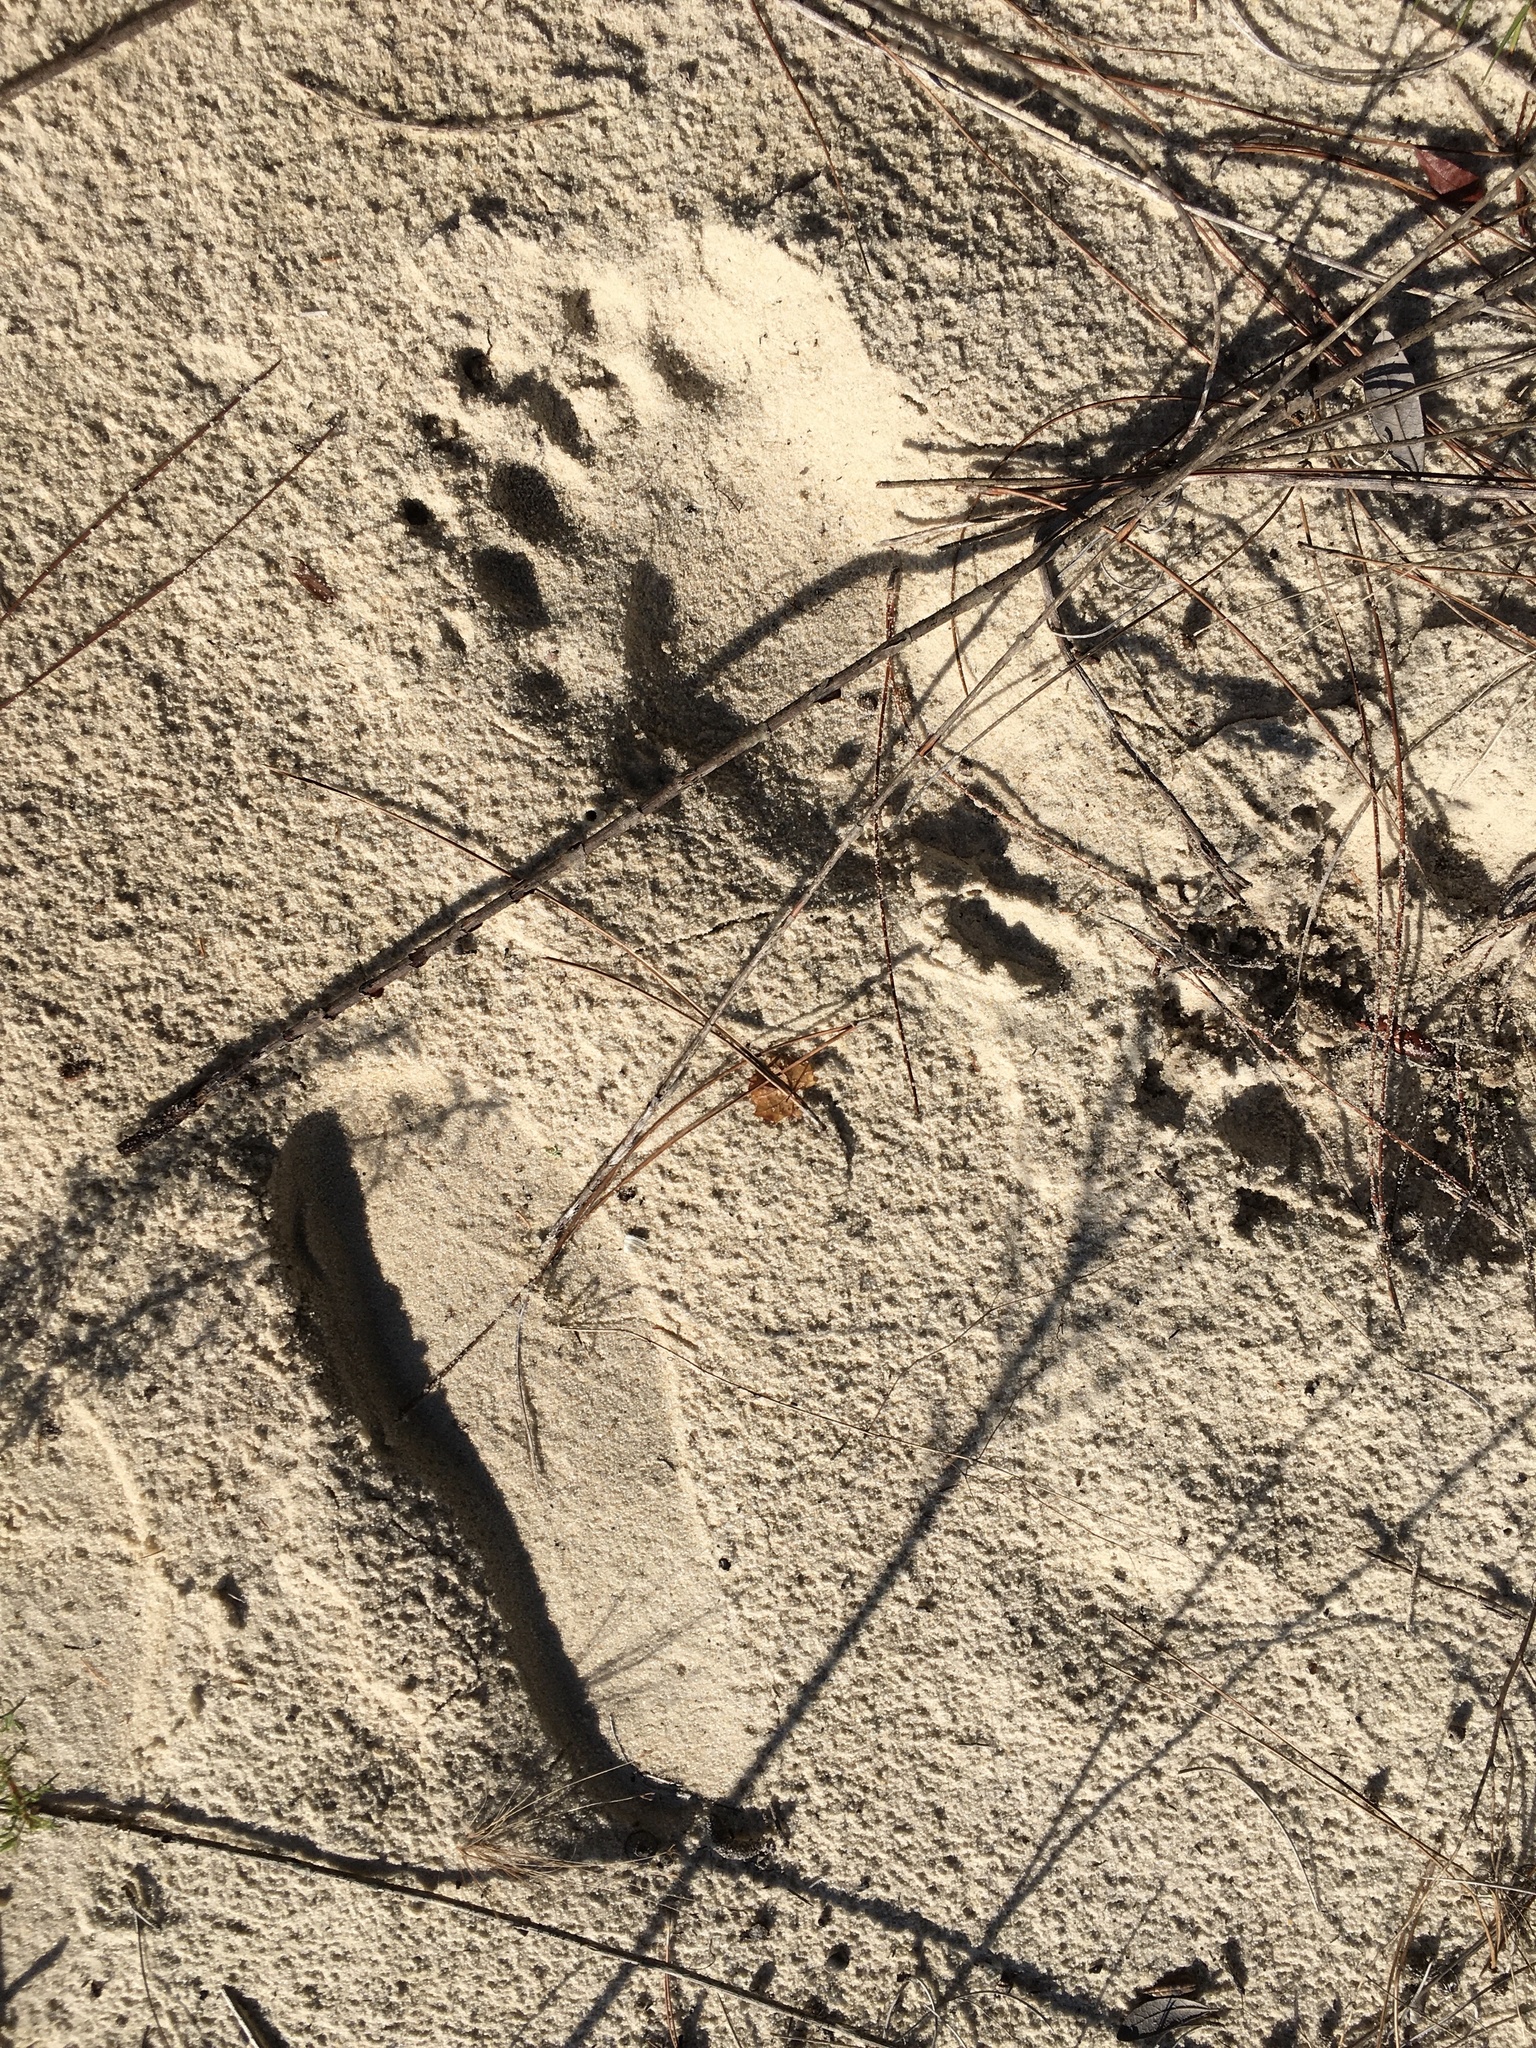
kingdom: Animalia
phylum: Chordata
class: Mammalia
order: Carnivora
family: Ursidae
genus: Ursus
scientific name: Ursus americanus
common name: American black bear
